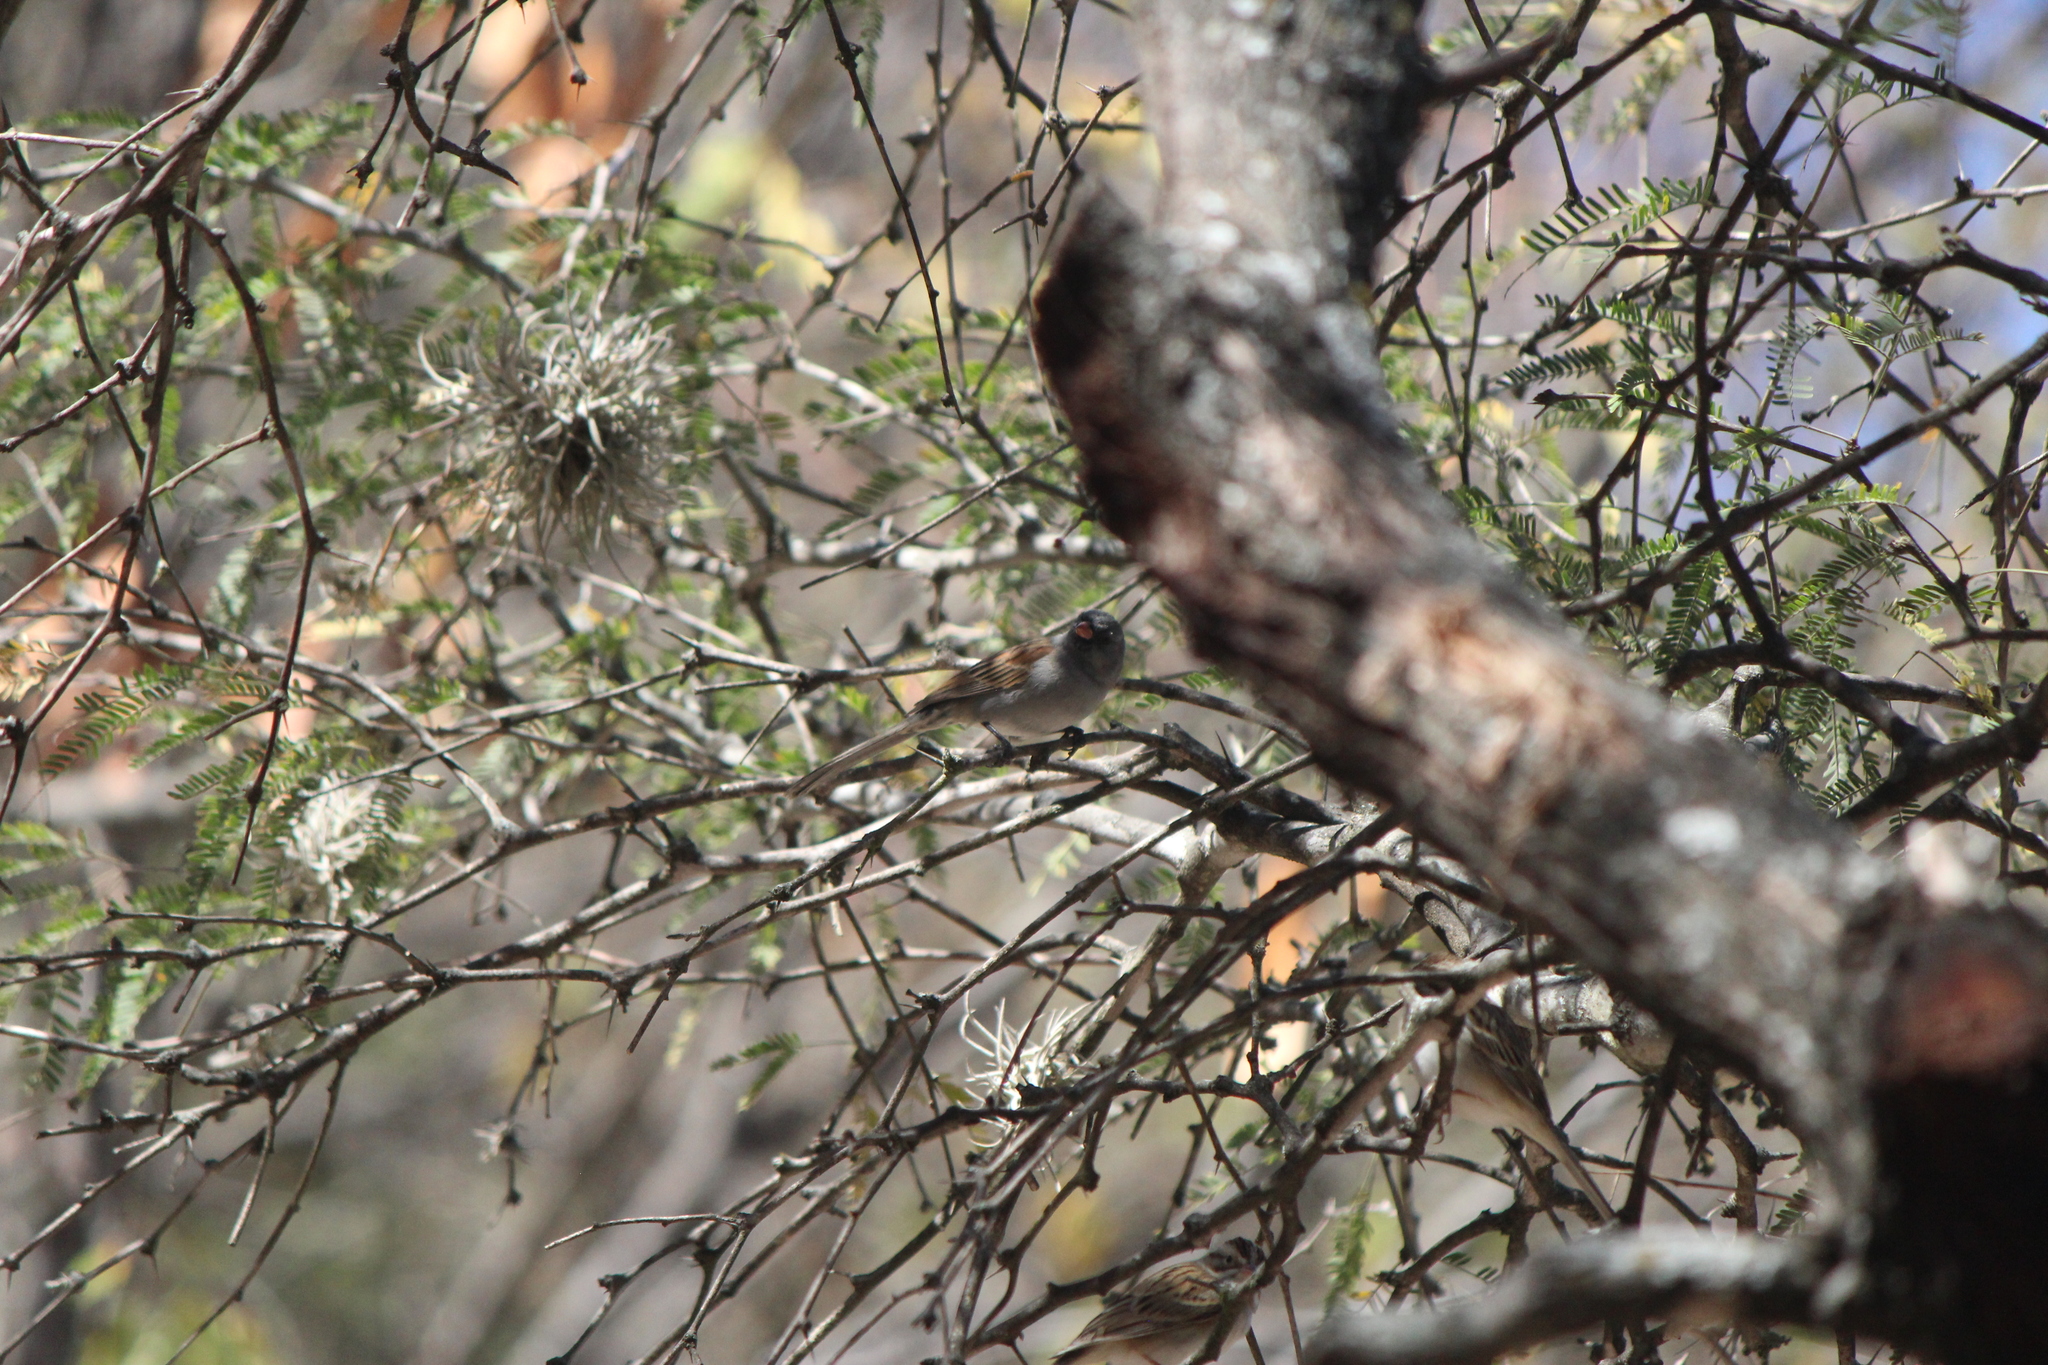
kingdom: Animalia
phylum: Chordata
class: Aves
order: Passeriformes
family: Passerellidae
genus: Spizella
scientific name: Spizella atrogularis
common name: Black-chinned sparrow
